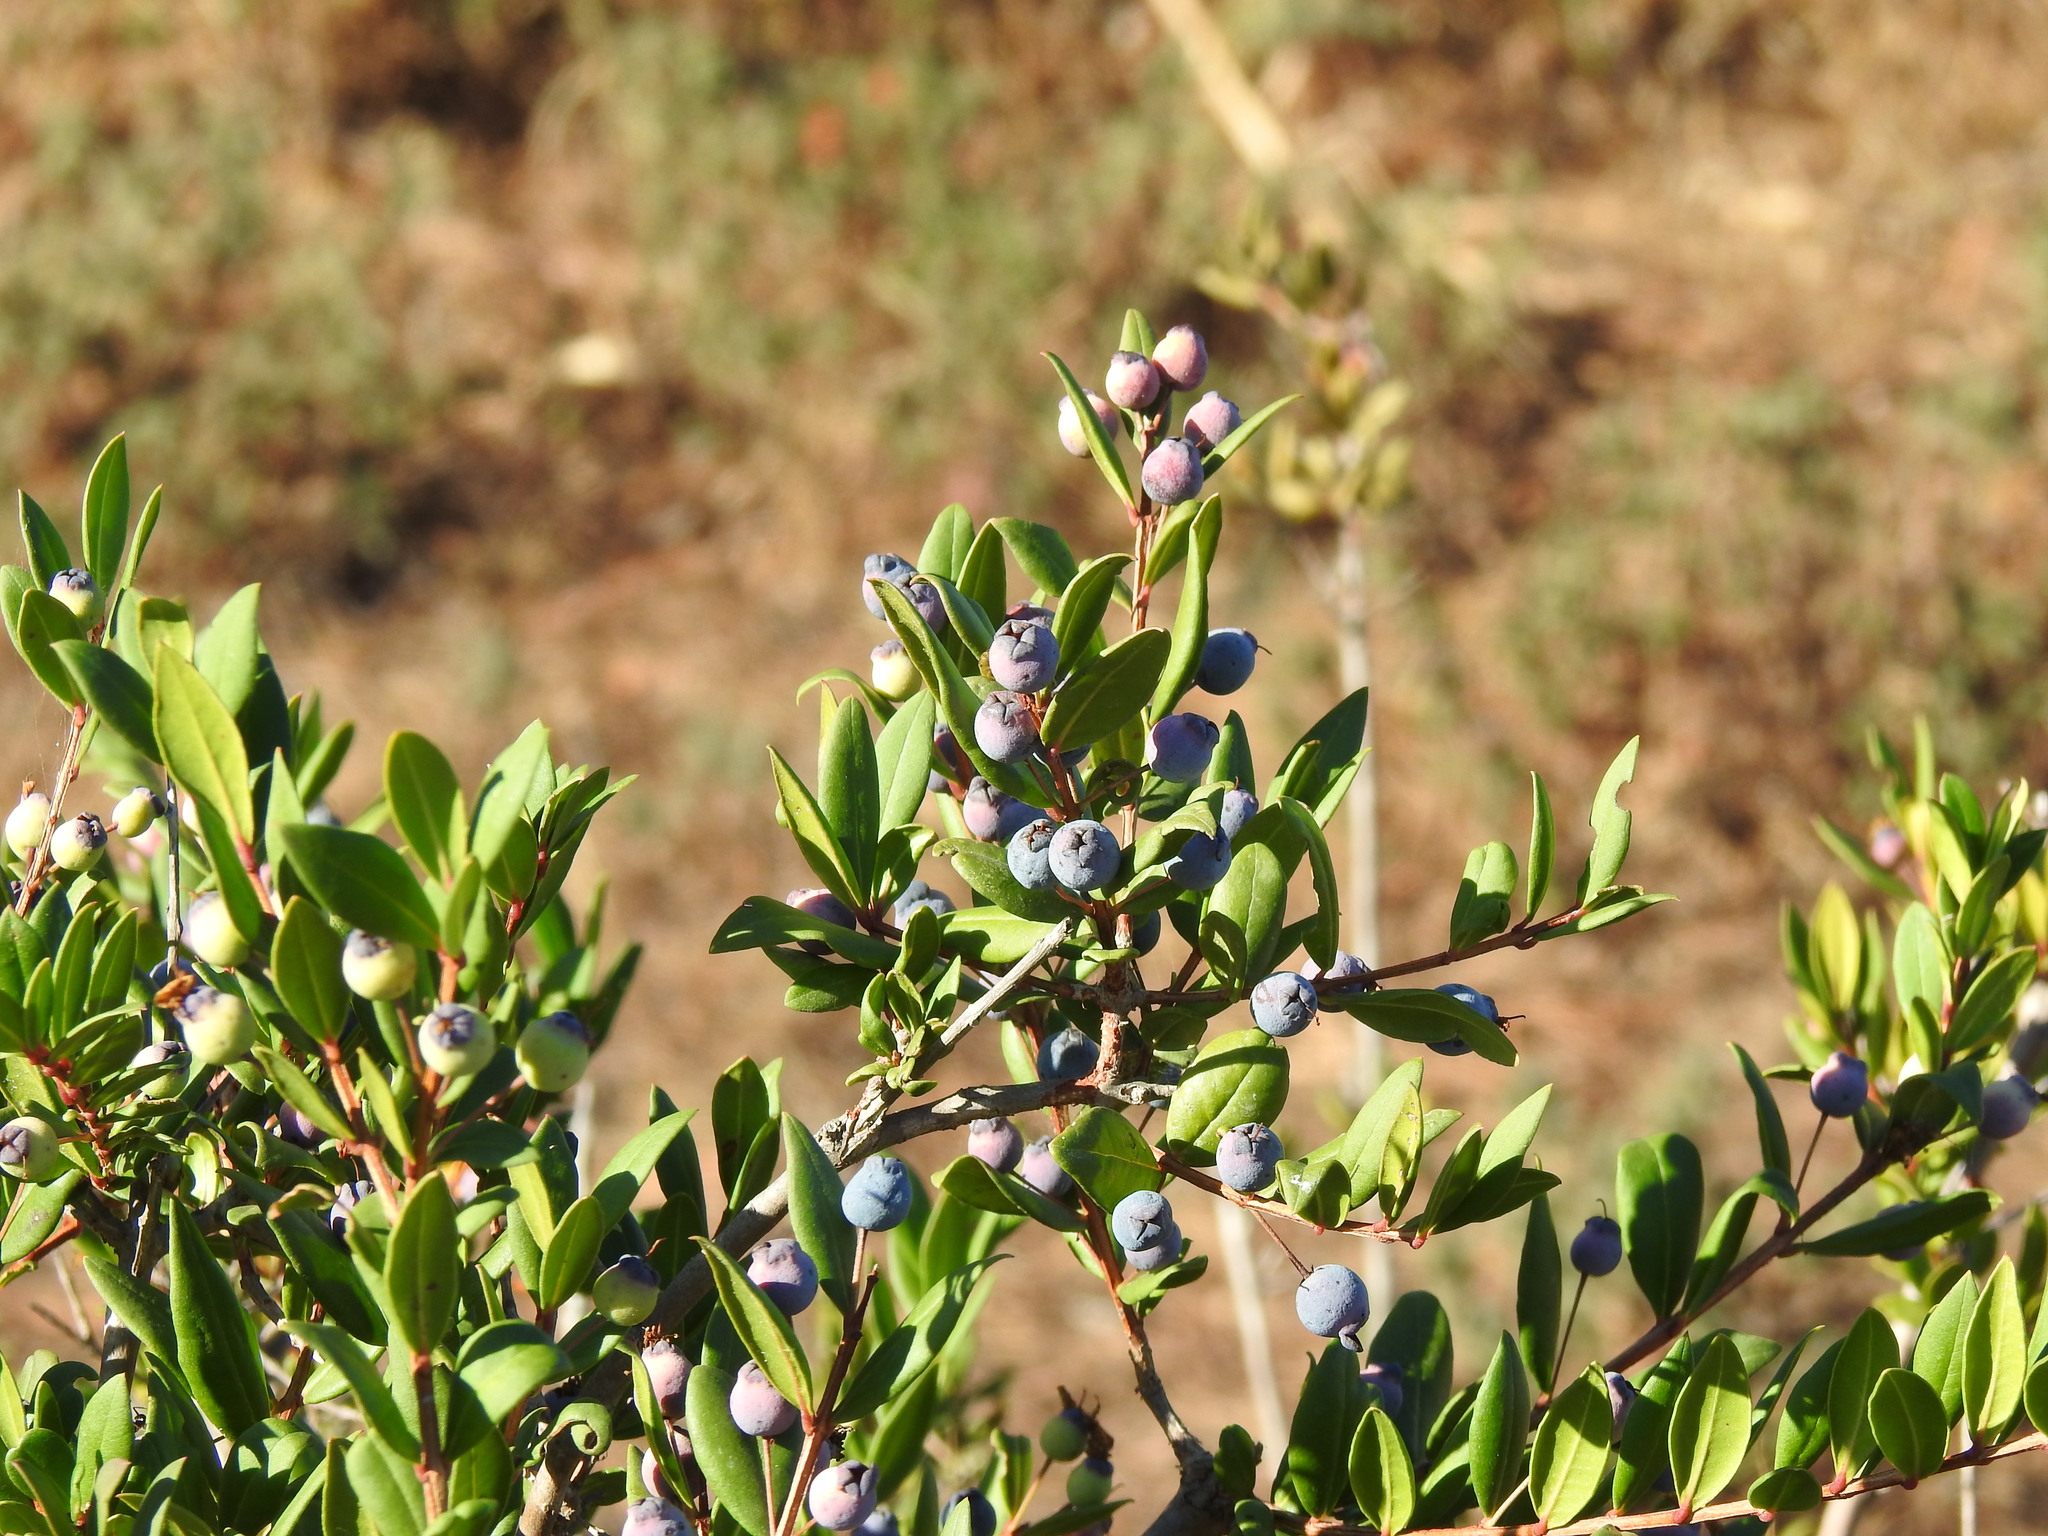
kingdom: Plantae
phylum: Tracheophyta
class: Magnoliopsida
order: Myrtales
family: Myrtaceae
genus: Myrtus
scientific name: Myrtus communis
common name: Myrtle
